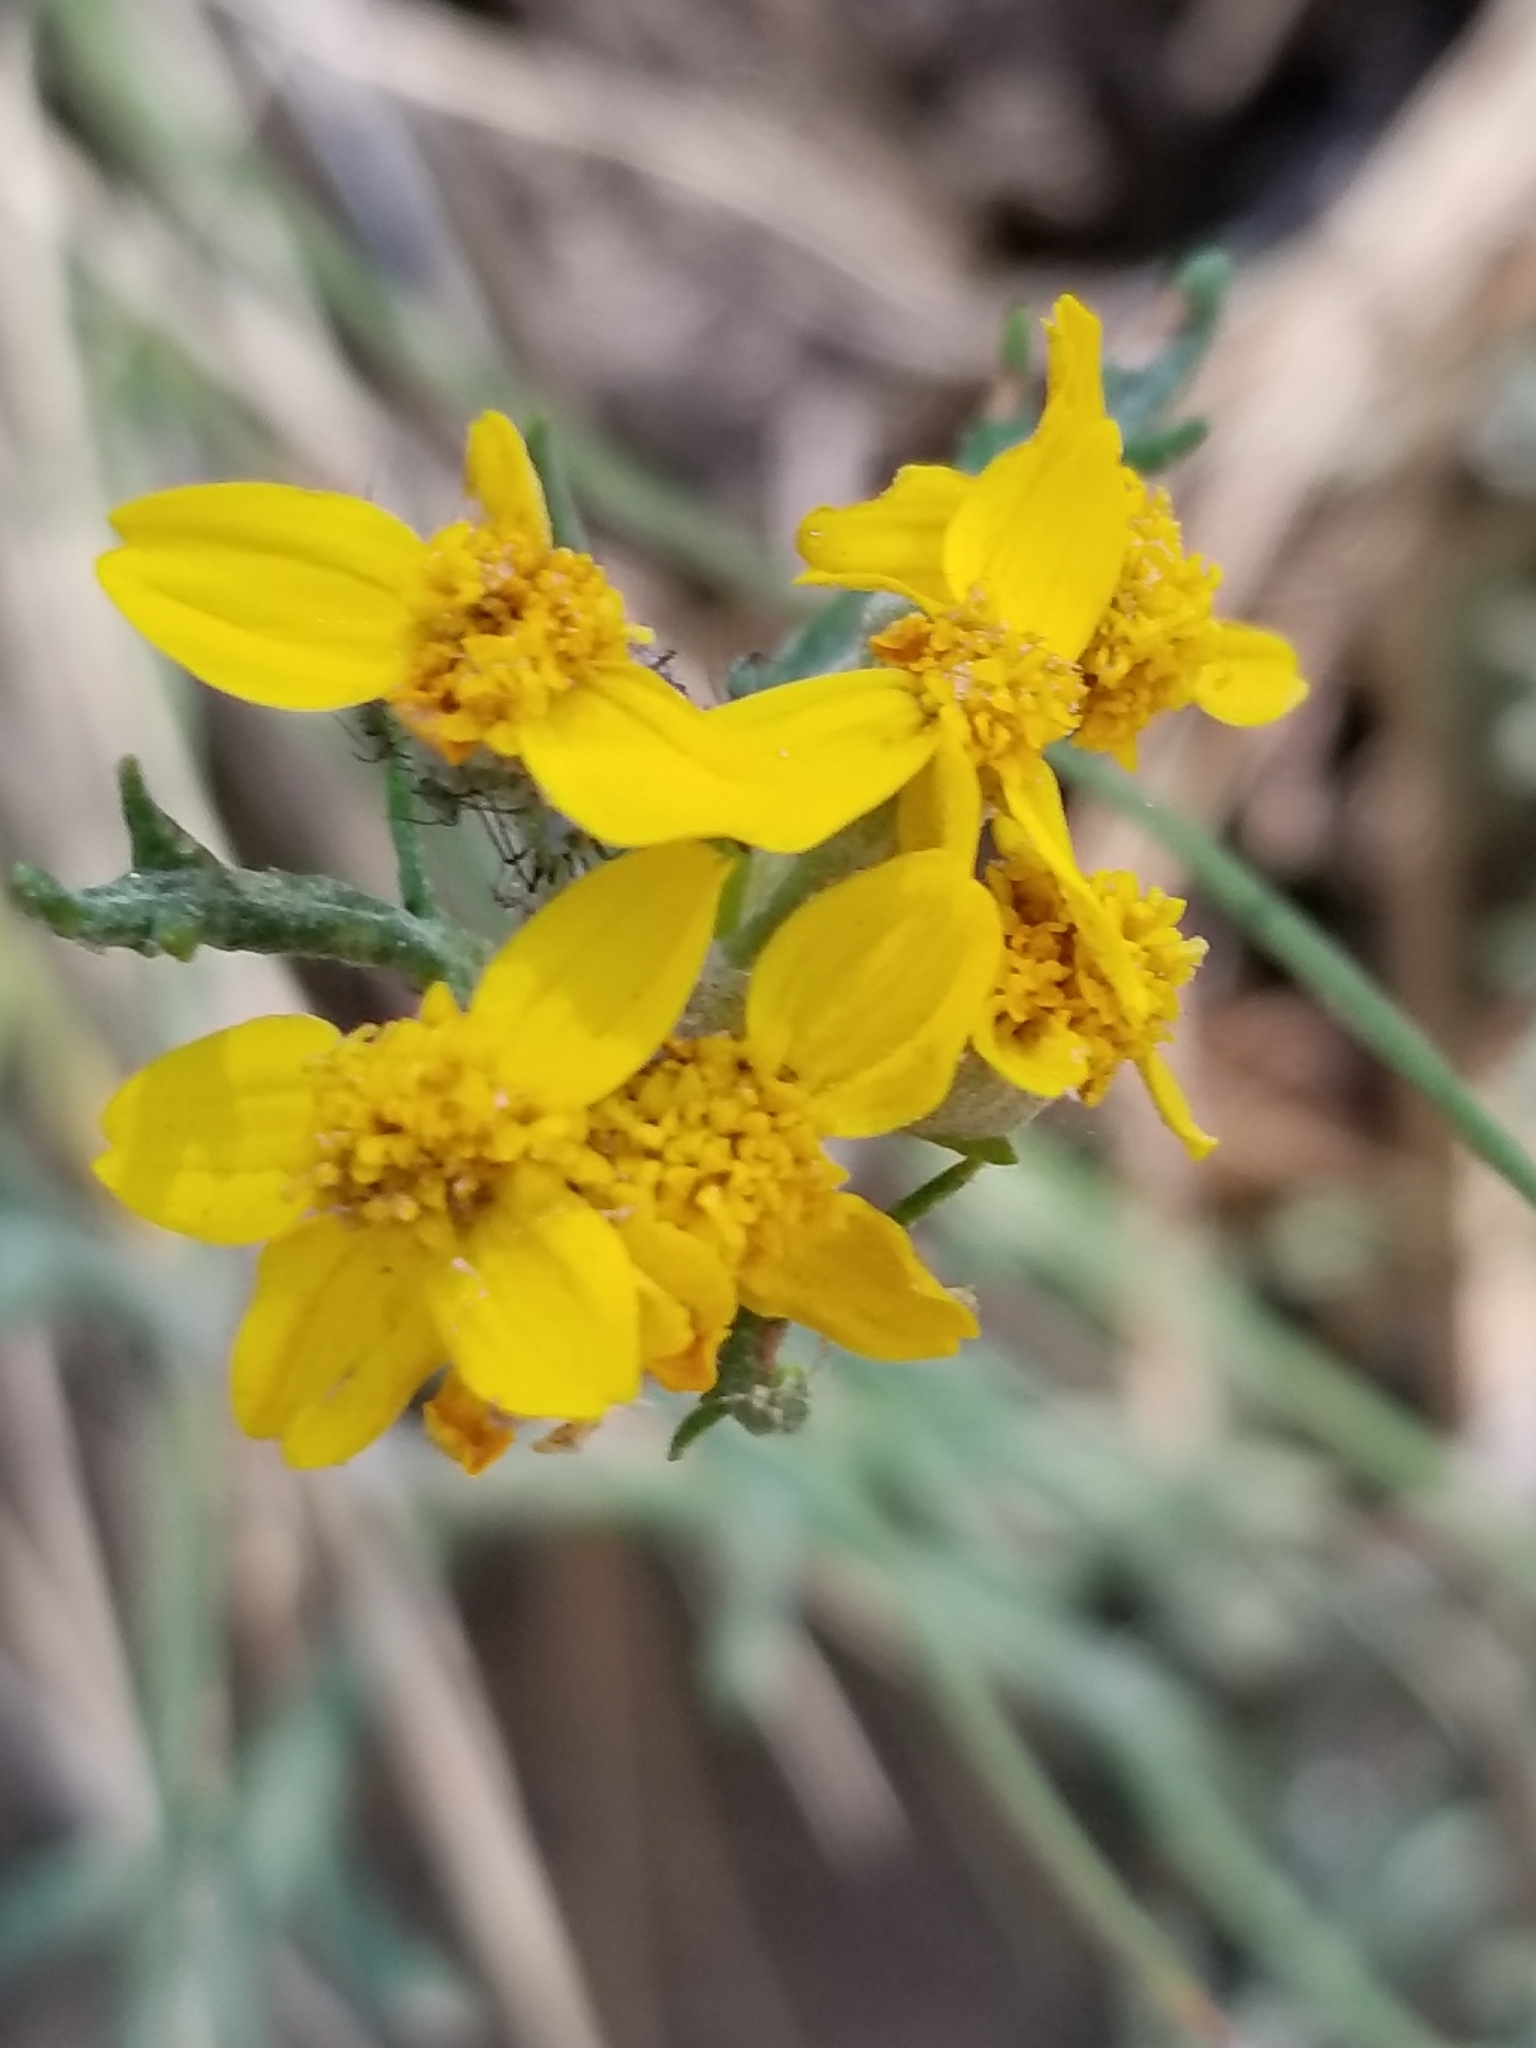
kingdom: Plantae
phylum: Tracheophyta
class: Magnoliopsida
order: Asterales
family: Asteraceae
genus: Eriophyllum
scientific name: Eriophyllum confertiflorum
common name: Golden-yarrow
